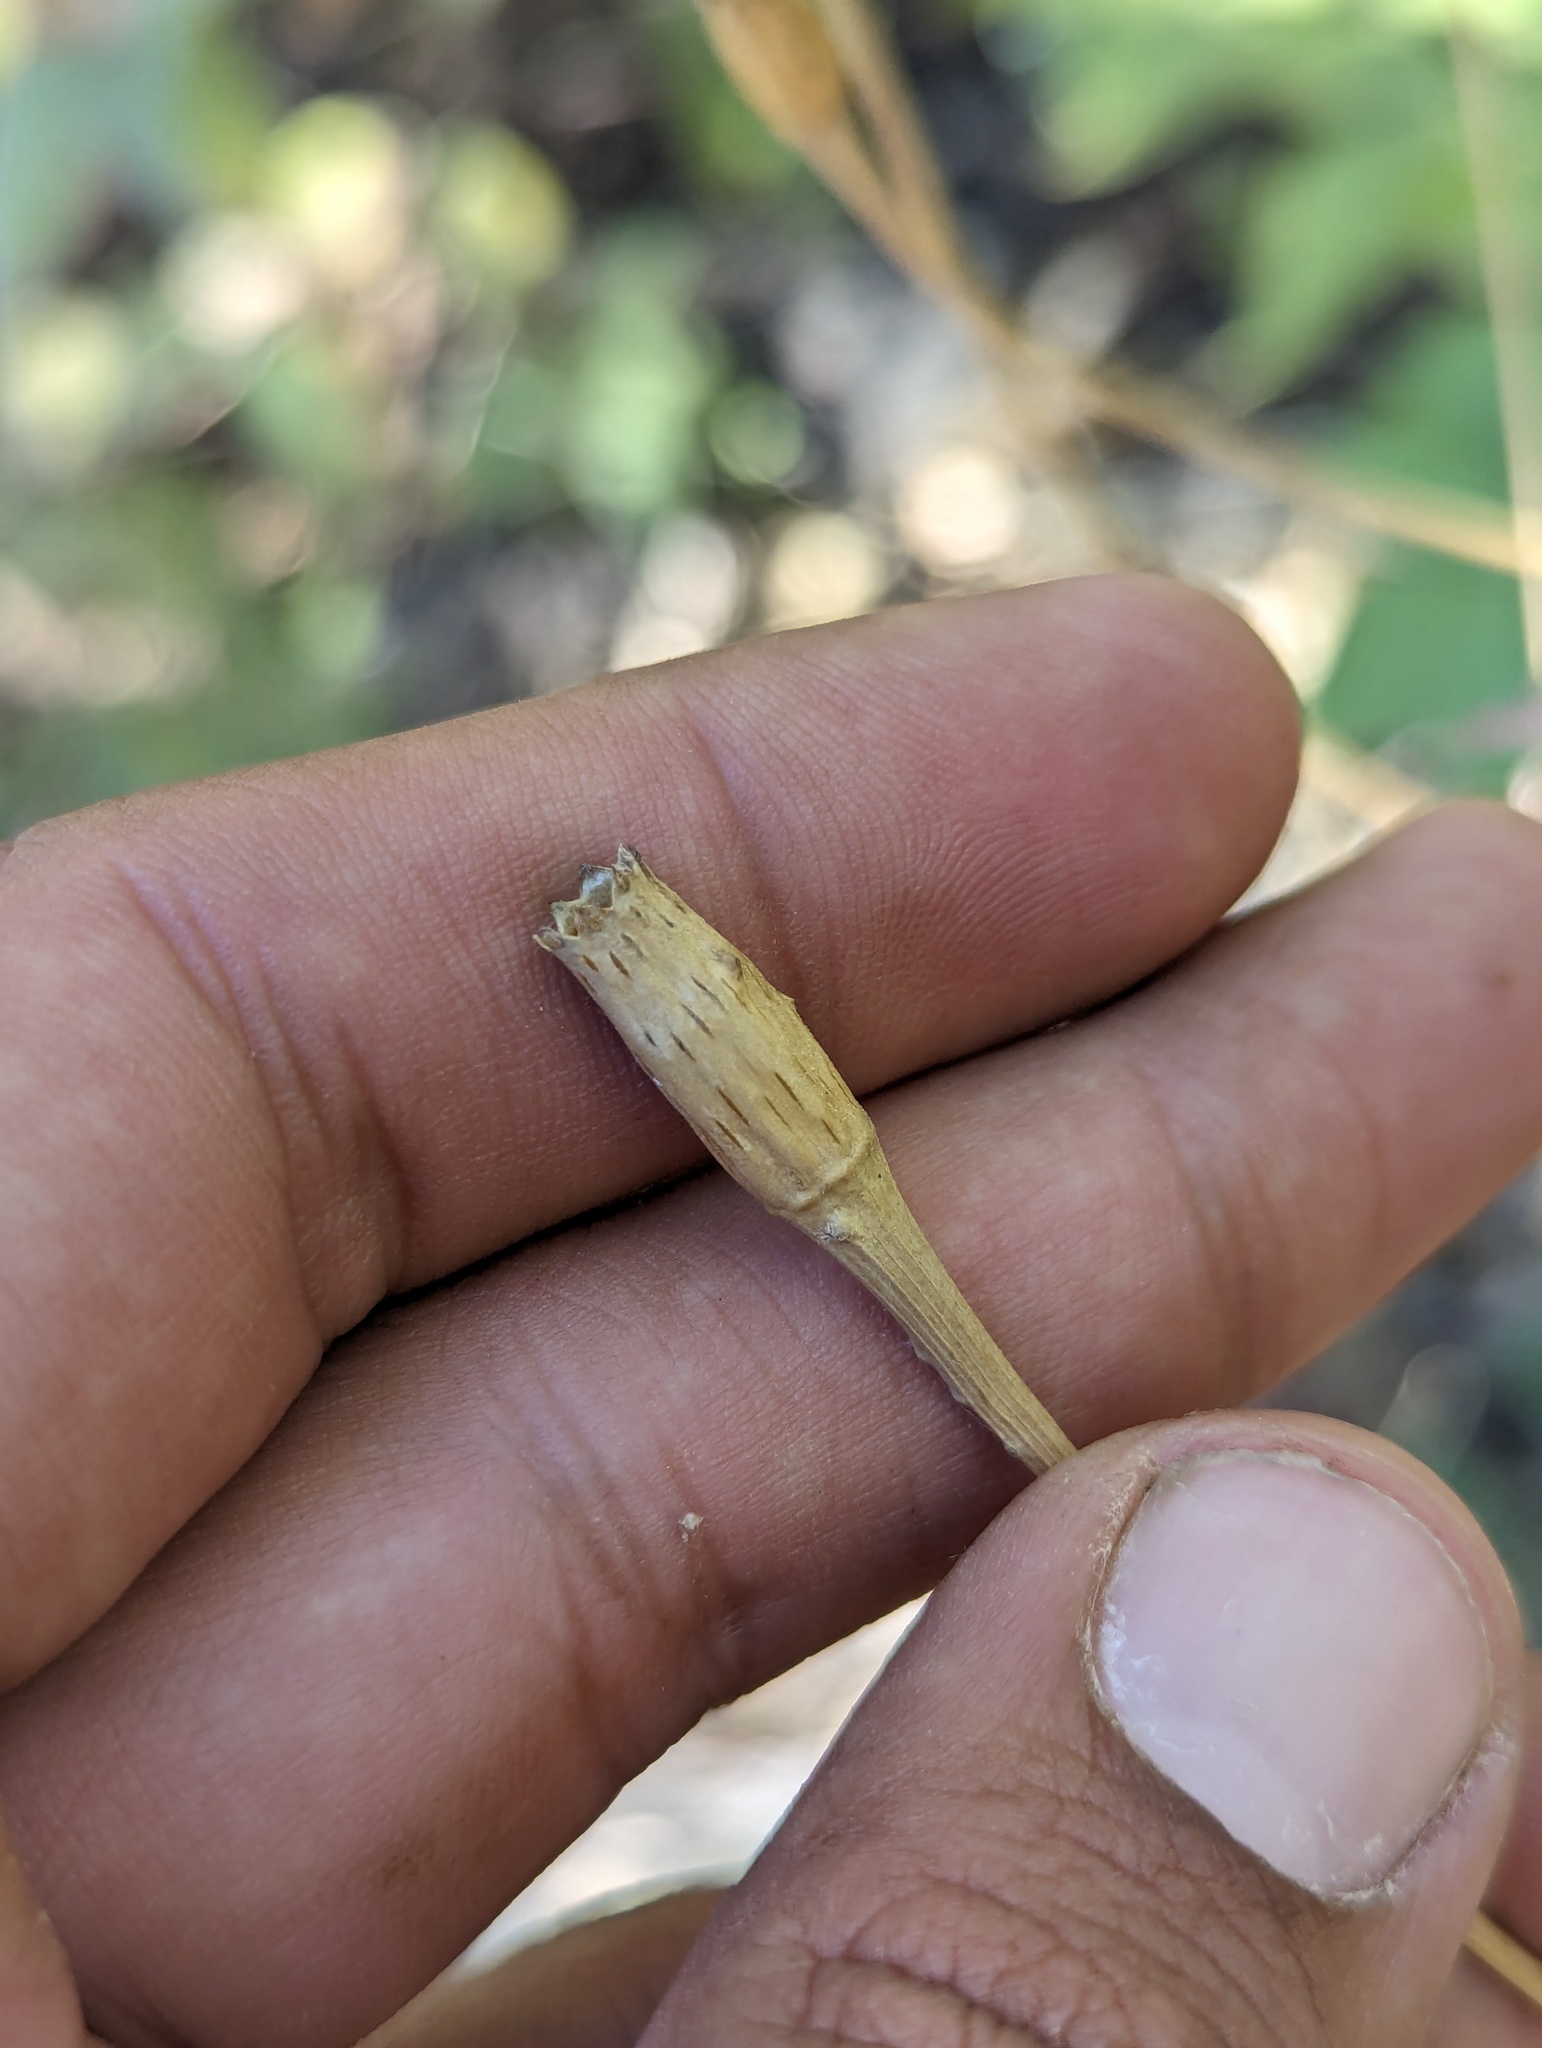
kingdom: Plantae
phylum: Tracheophyta
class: Magnoliopsida
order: Asterales
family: Asteraceae
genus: Tagetes
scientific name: Tagetes lacera
